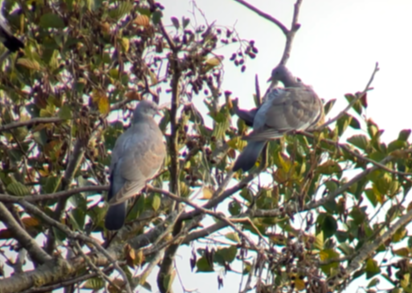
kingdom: Animalia
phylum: Chordata
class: Aves
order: Columbiformes
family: Columbidae
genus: Columba
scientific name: Columba palumbus
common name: Common wood pigeon
